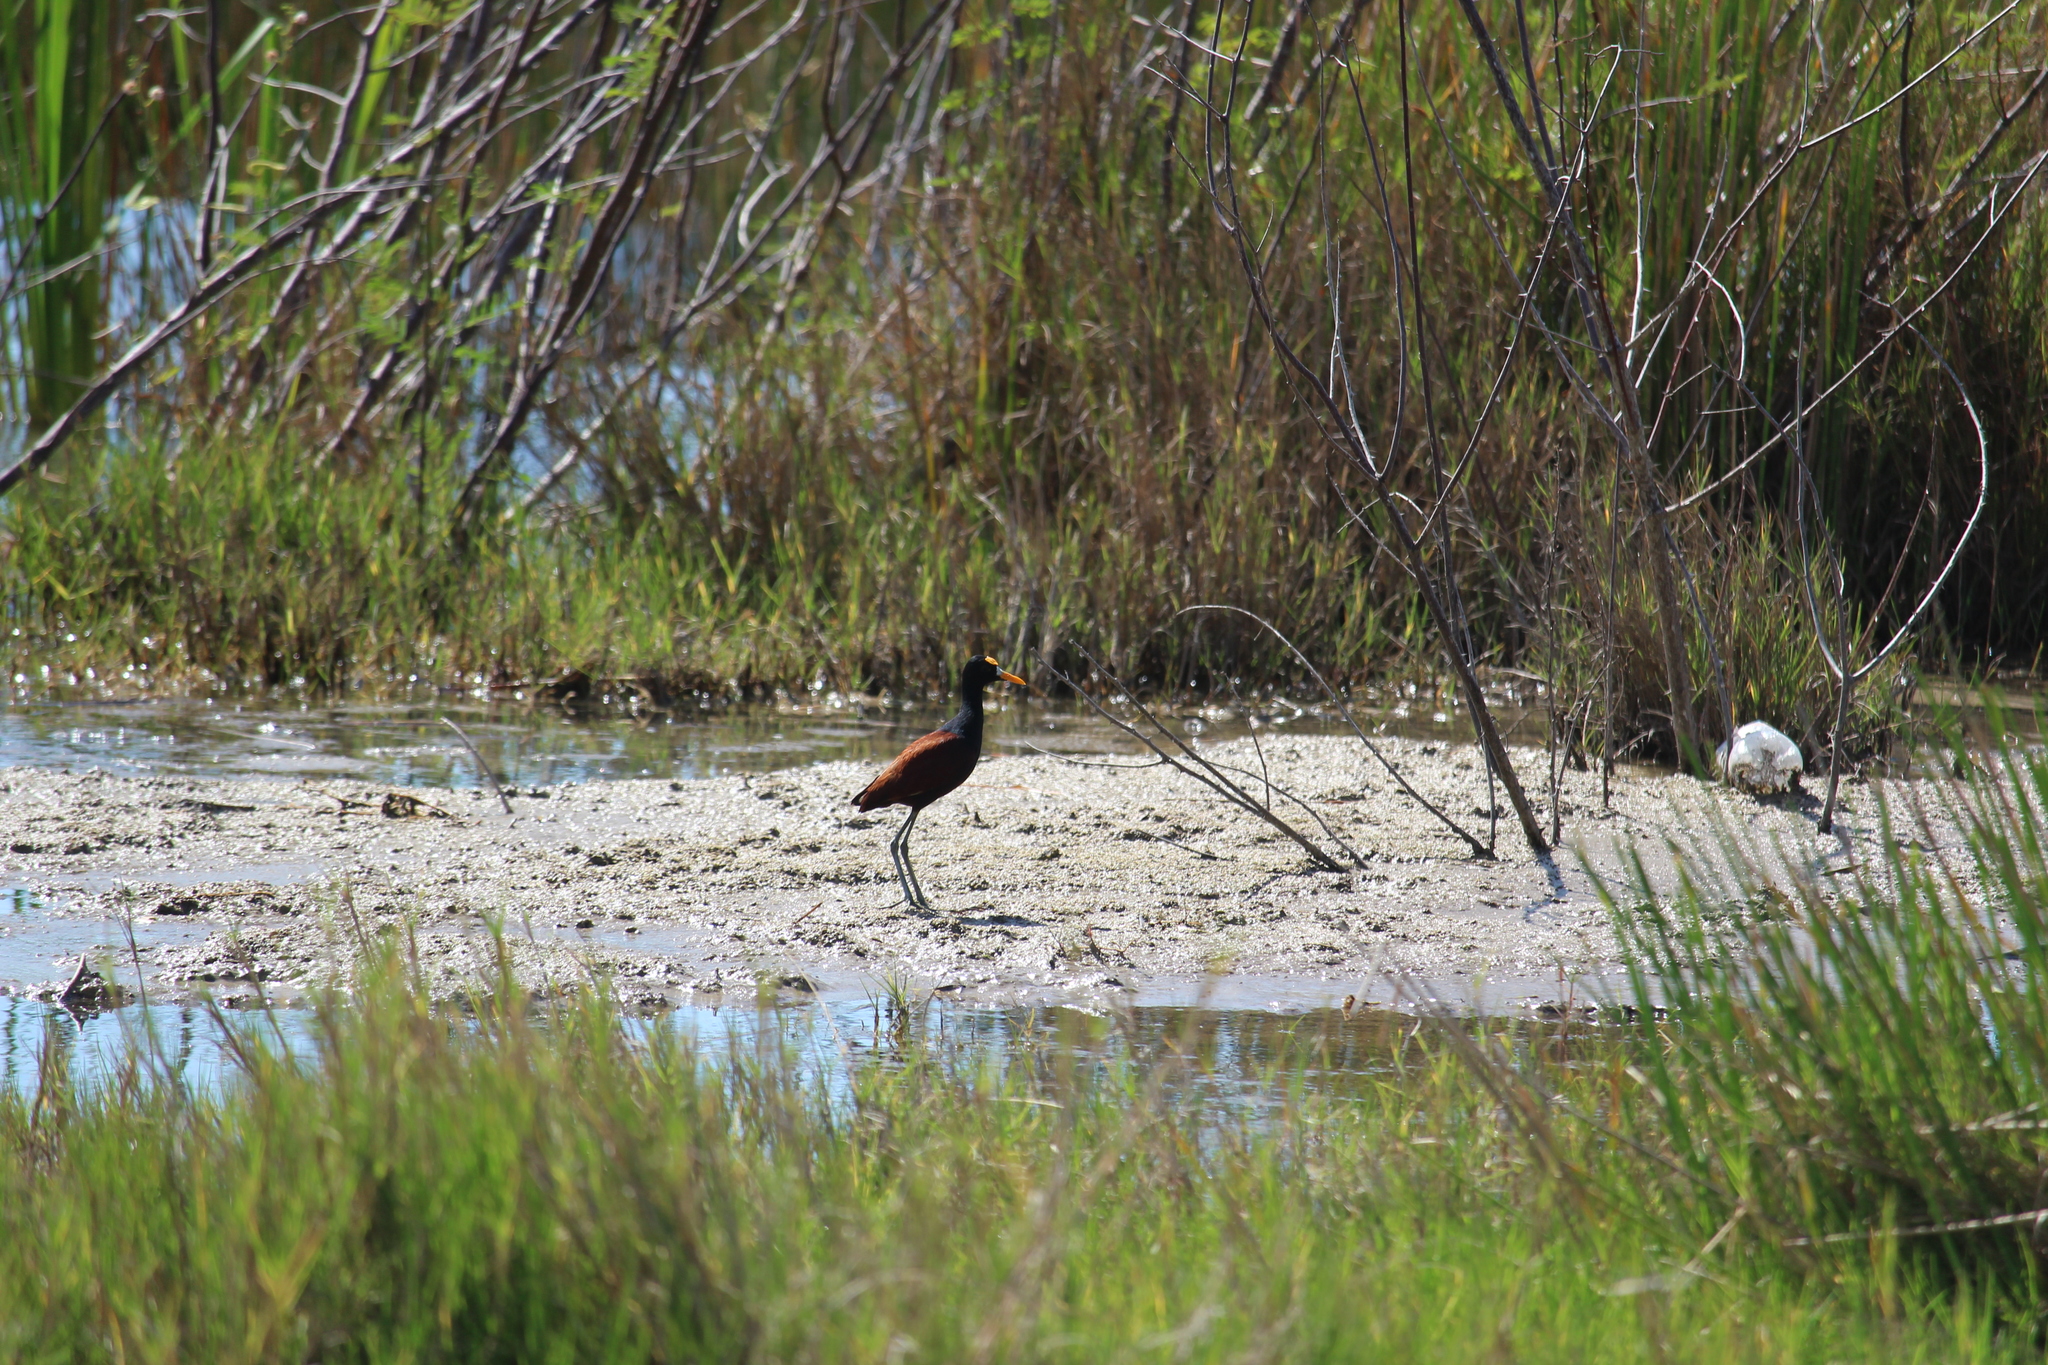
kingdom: Animalia
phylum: Chordata
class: Aves
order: Charadriiformes
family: Jacanidae
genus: Jacana
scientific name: Jacana spinosa
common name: Northern jacana
